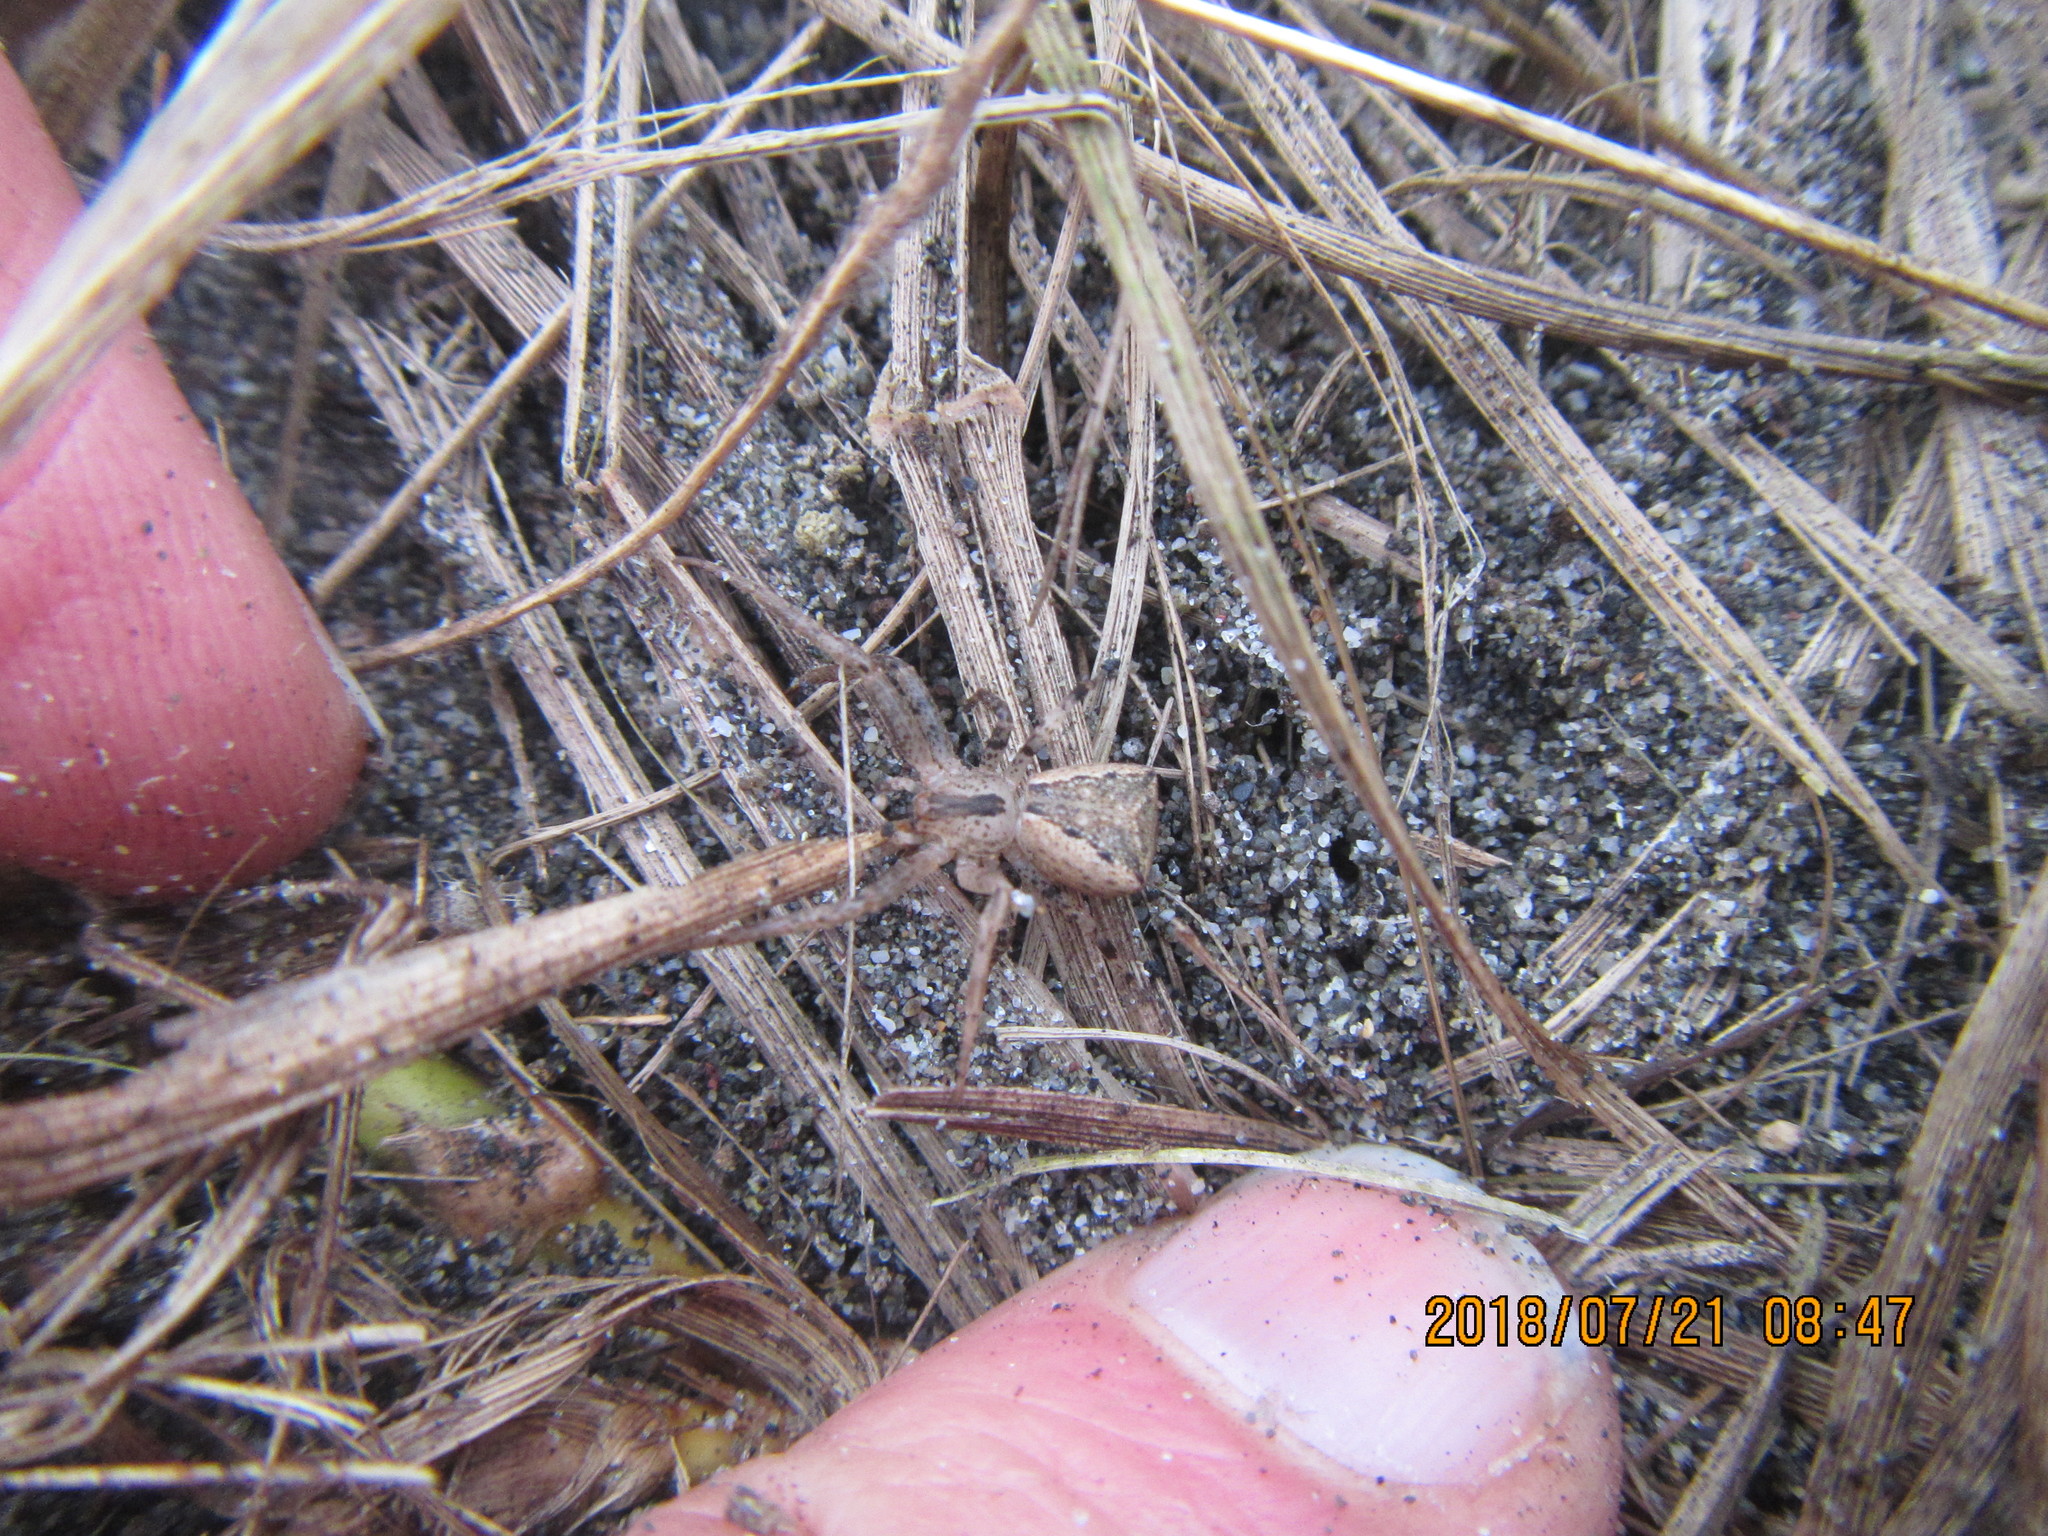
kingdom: Animalia
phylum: Arthropoda
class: Arachnida
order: Araneae
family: Thomisidae
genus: Sidymella
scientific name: Sidymella trapezia
